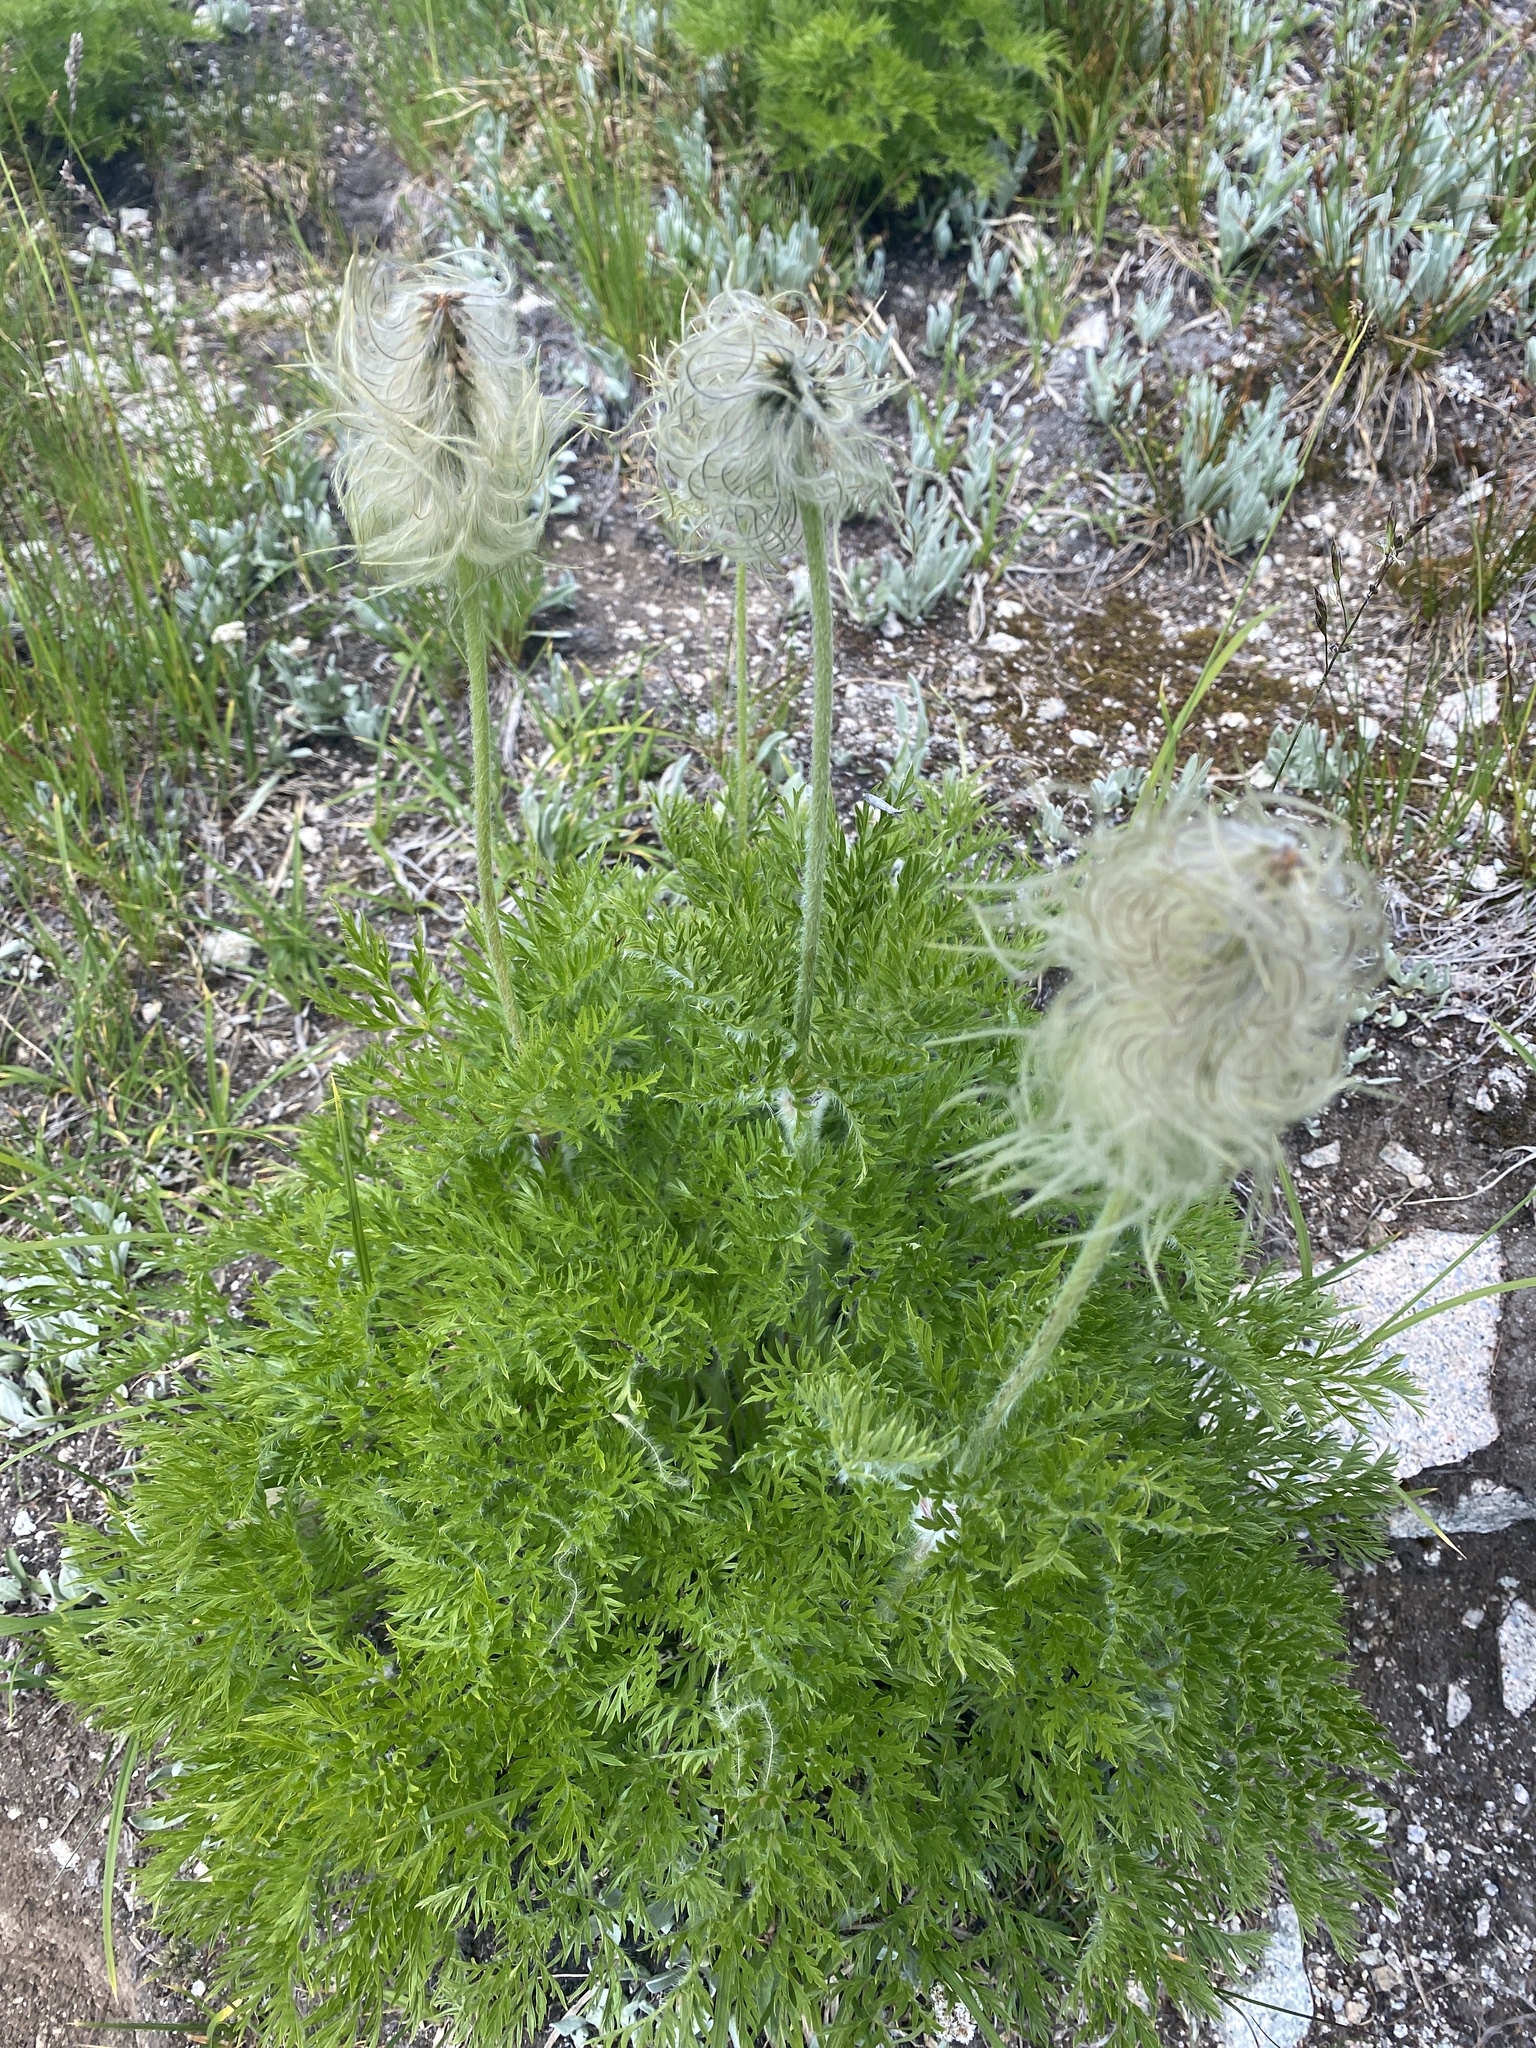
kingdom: Plantae
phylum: Tracheophyta
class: Magnoliopsida
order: Ranunculales
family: Ranunculaceae
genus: Pulsatilla
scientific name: Pulsatilla occidentalis
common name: Mountain pasqueflower
